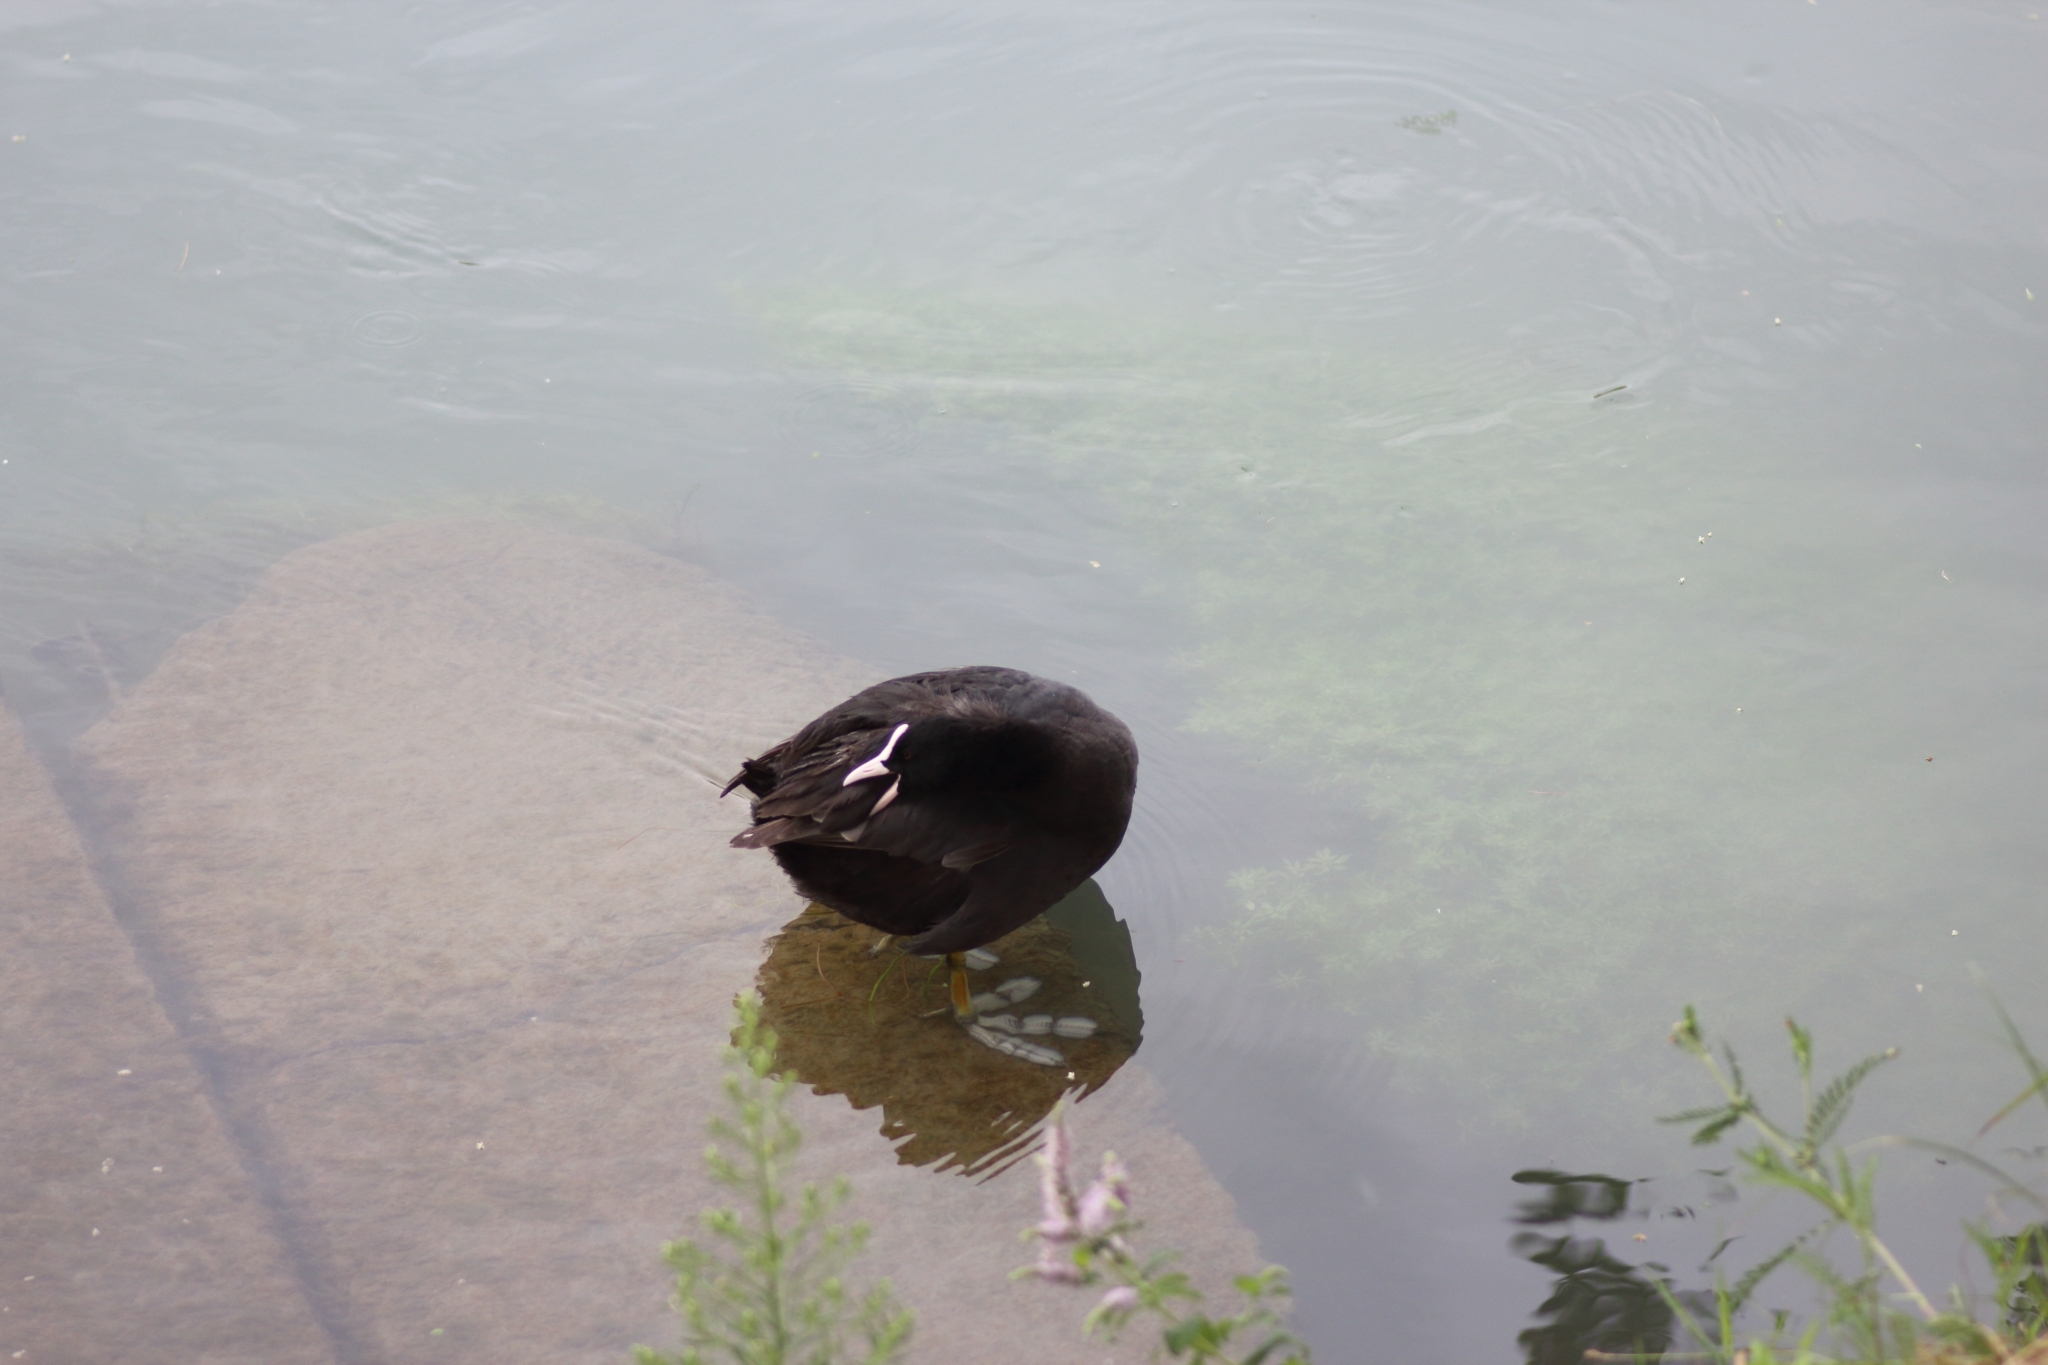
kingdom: Animalia
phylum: Chordata
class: Aves
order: Gruiformes
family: Rallidae
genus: Fulica
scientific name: Fulica atra
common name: Eurasian coot
